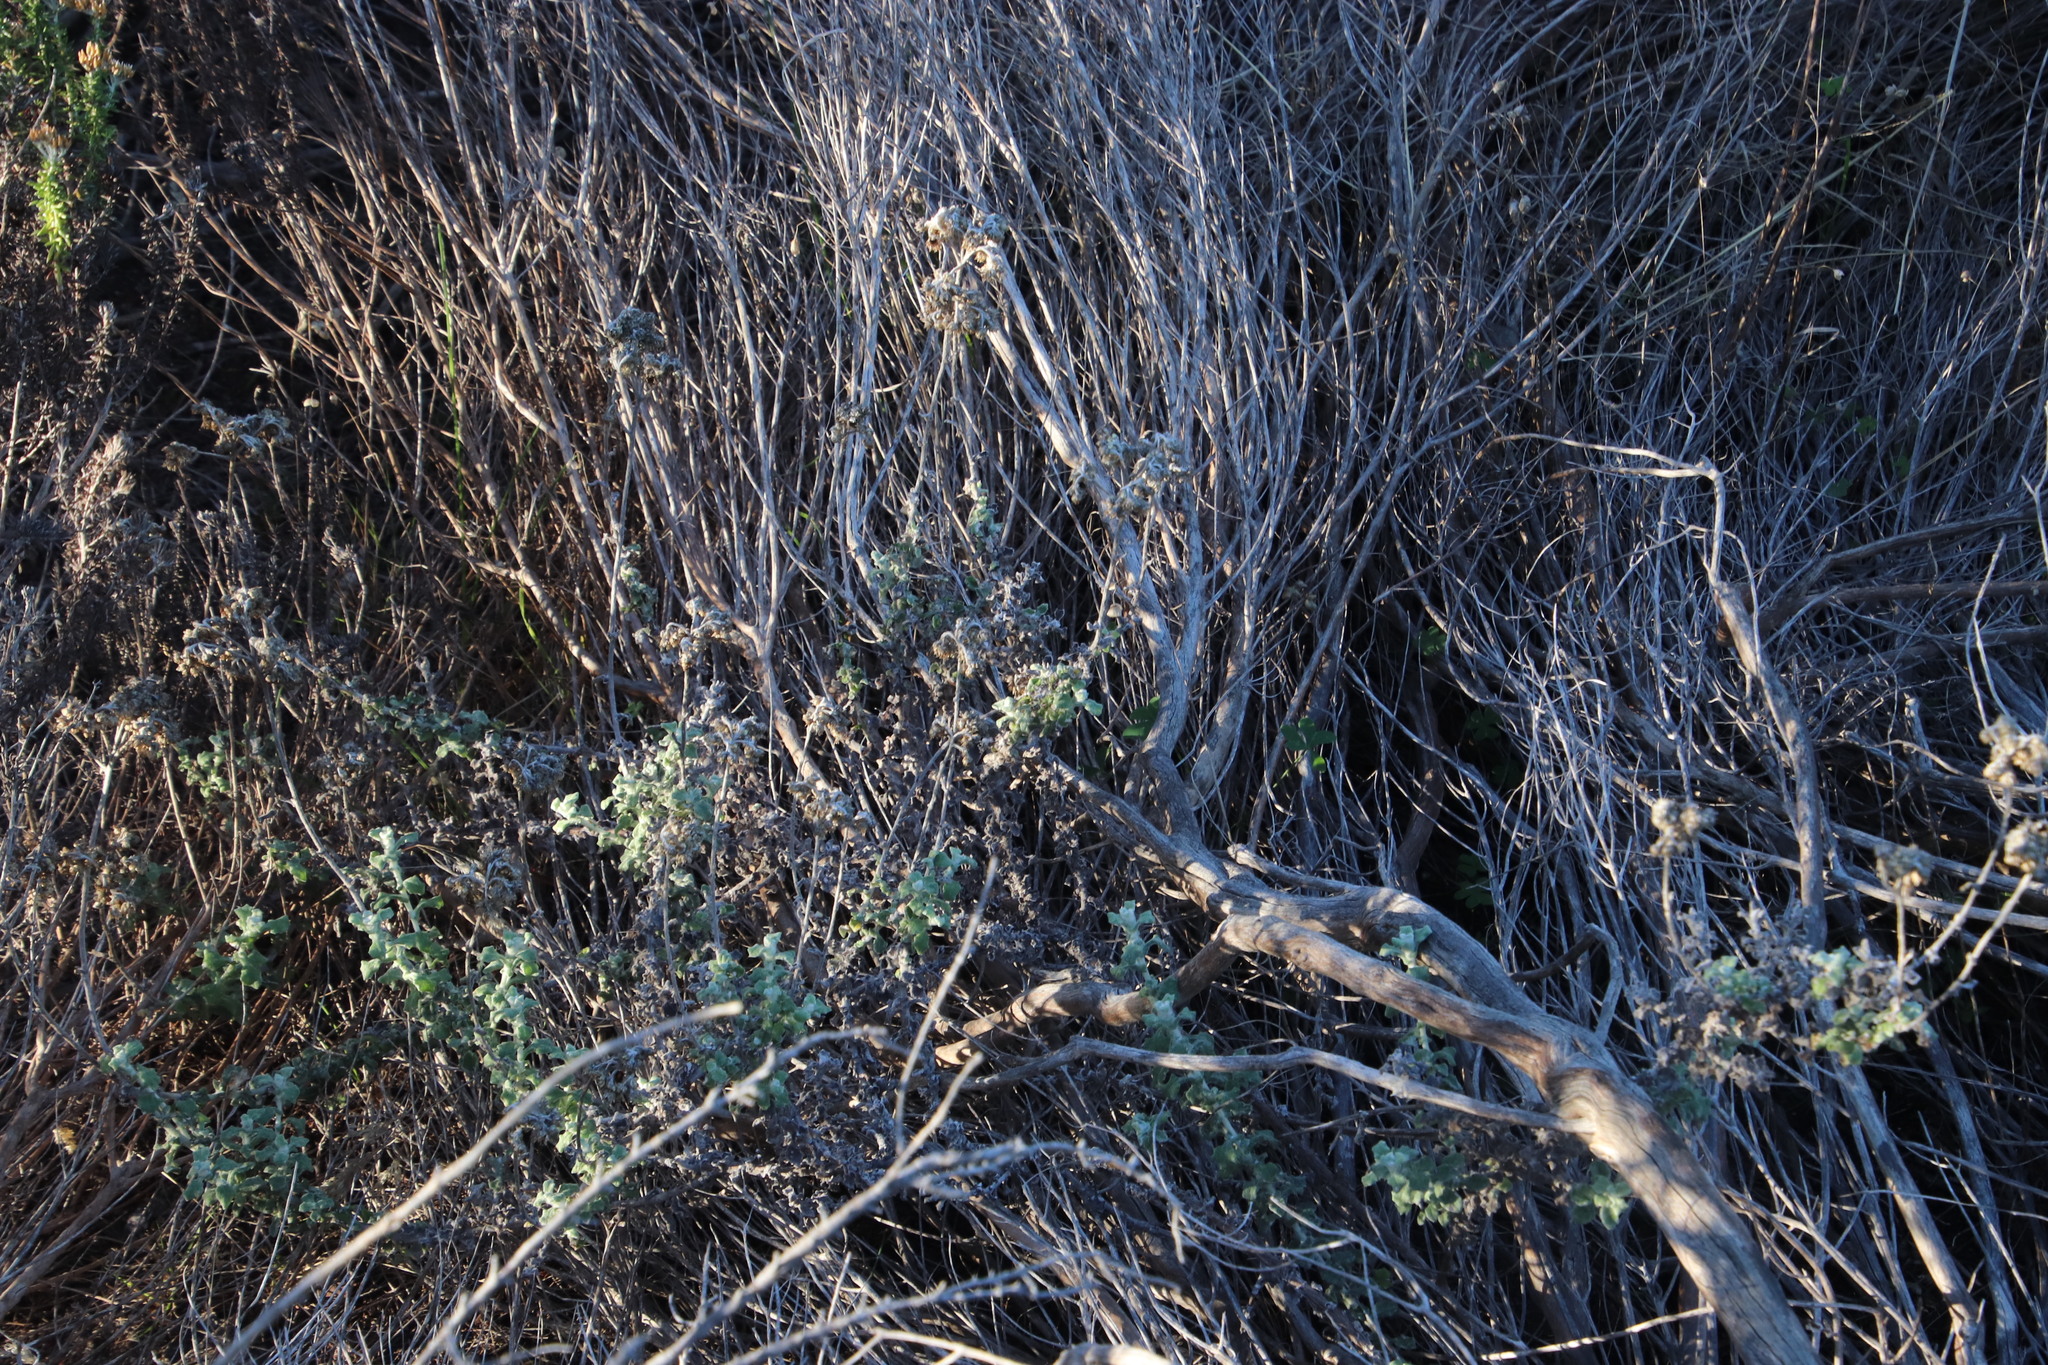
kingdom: Plantae
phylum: Tracheophyta
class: Magnoliopsida
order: Asterales
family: Asteraceae
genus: Helichrysum
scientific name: Helichrysum pandurifolium
